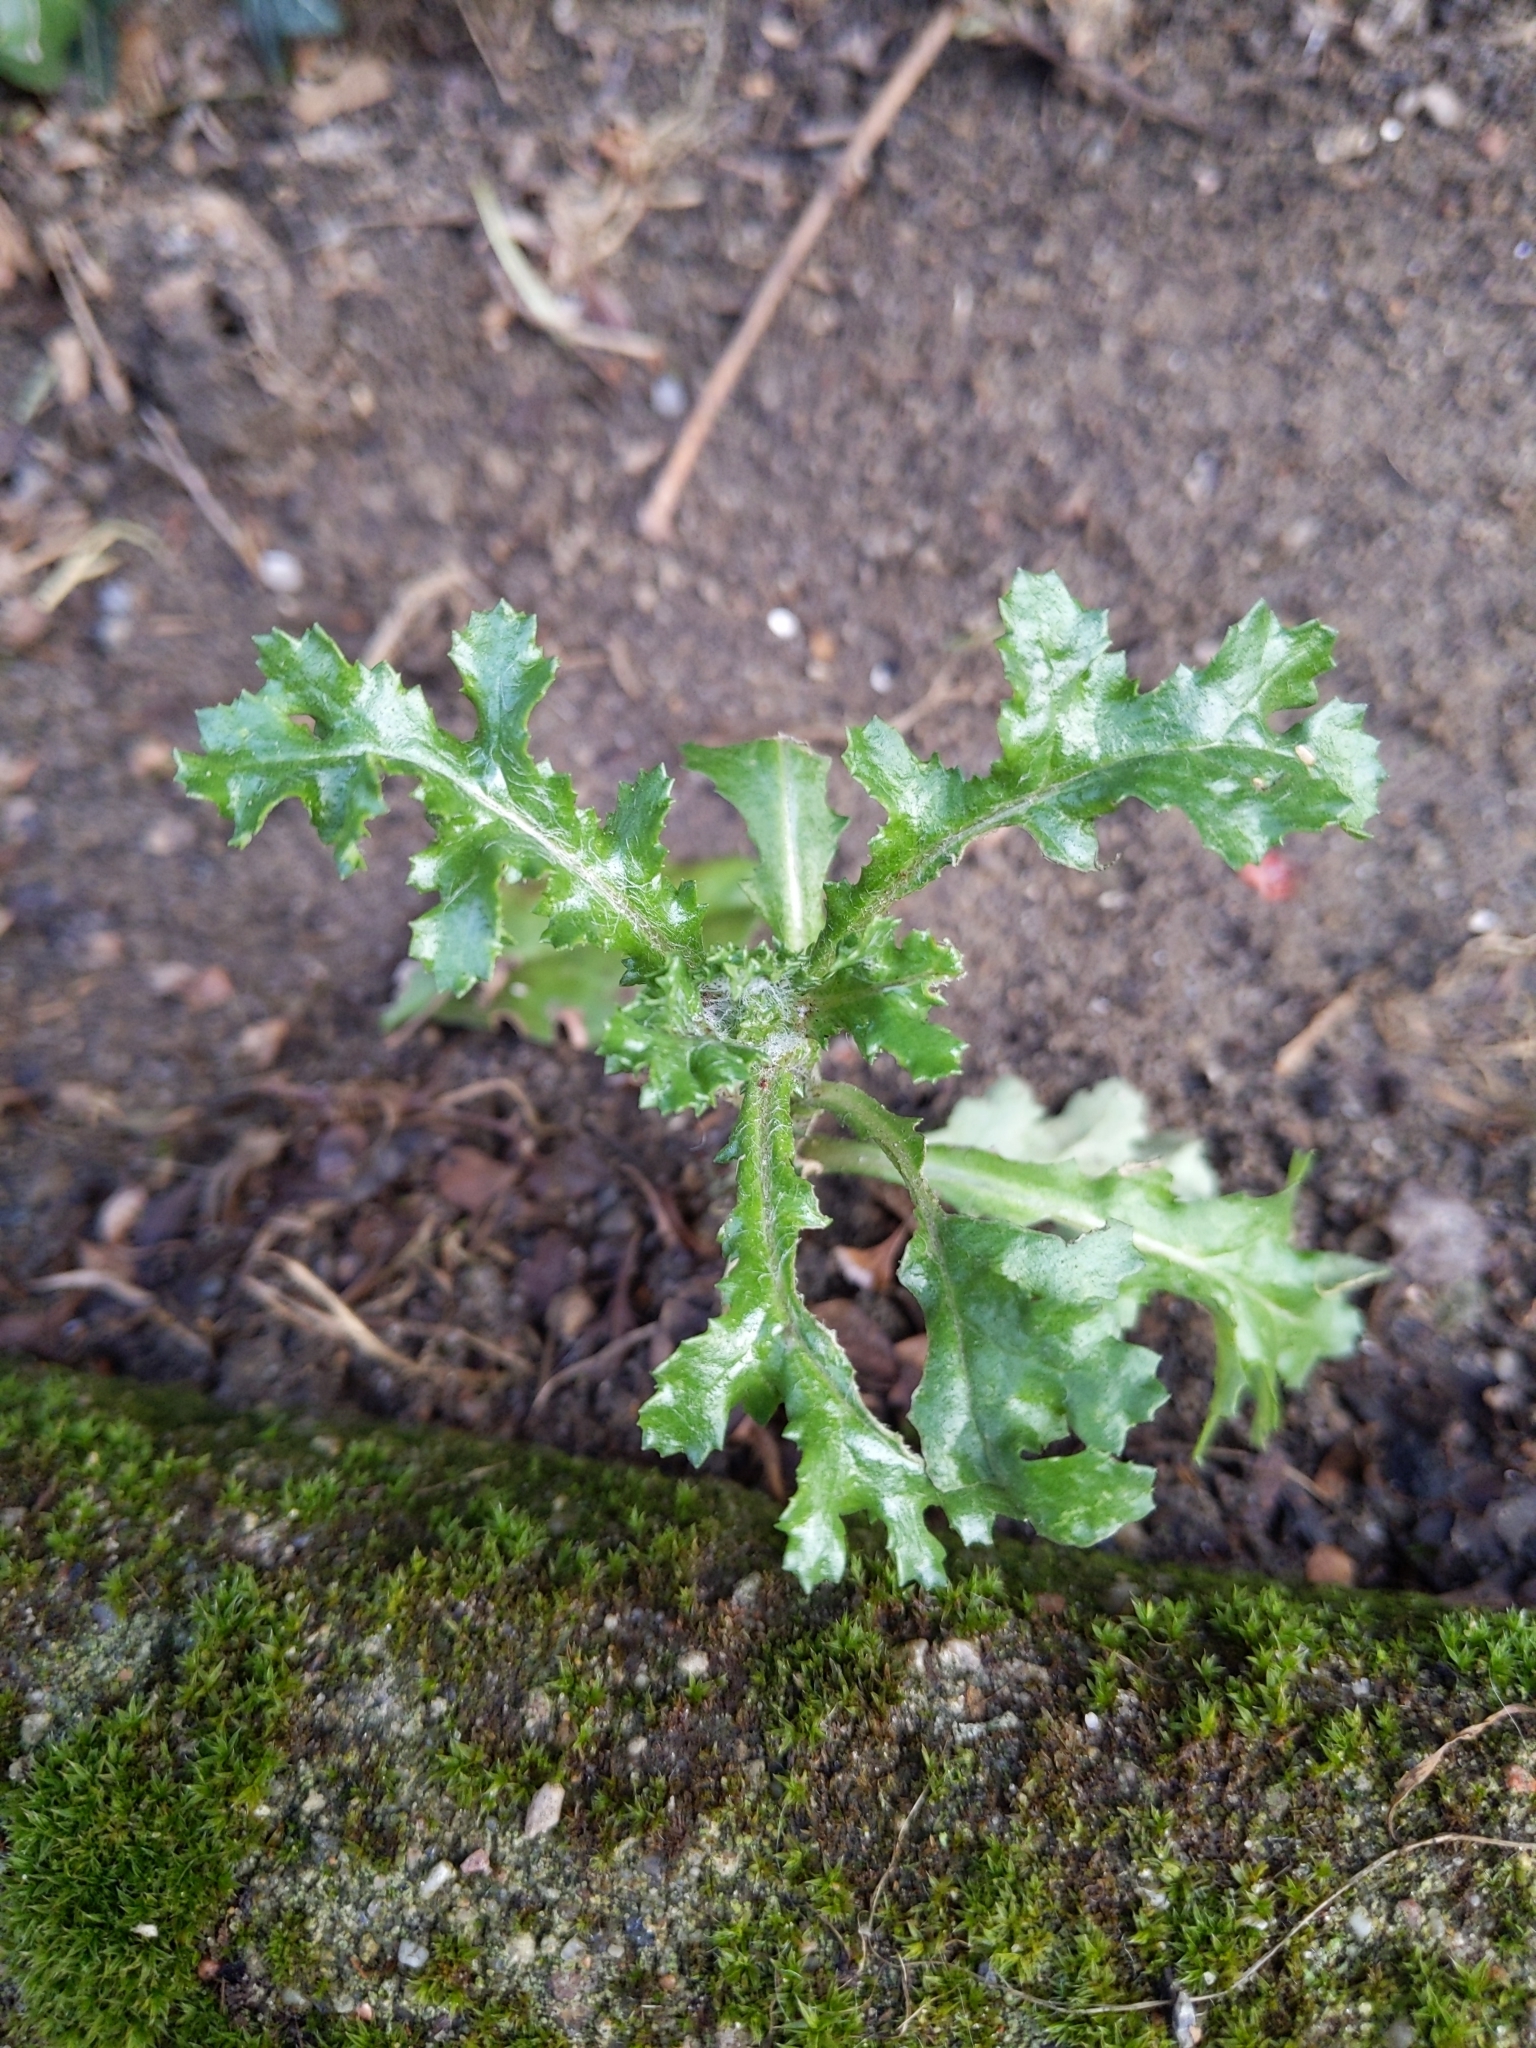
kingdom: Plantae
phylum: Tracheophyta
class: Magnoliopsida
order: Asterales
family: Asteraceae
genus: Senecio
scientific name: Senecio vulgaris
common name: Old-man-in-the-spring
